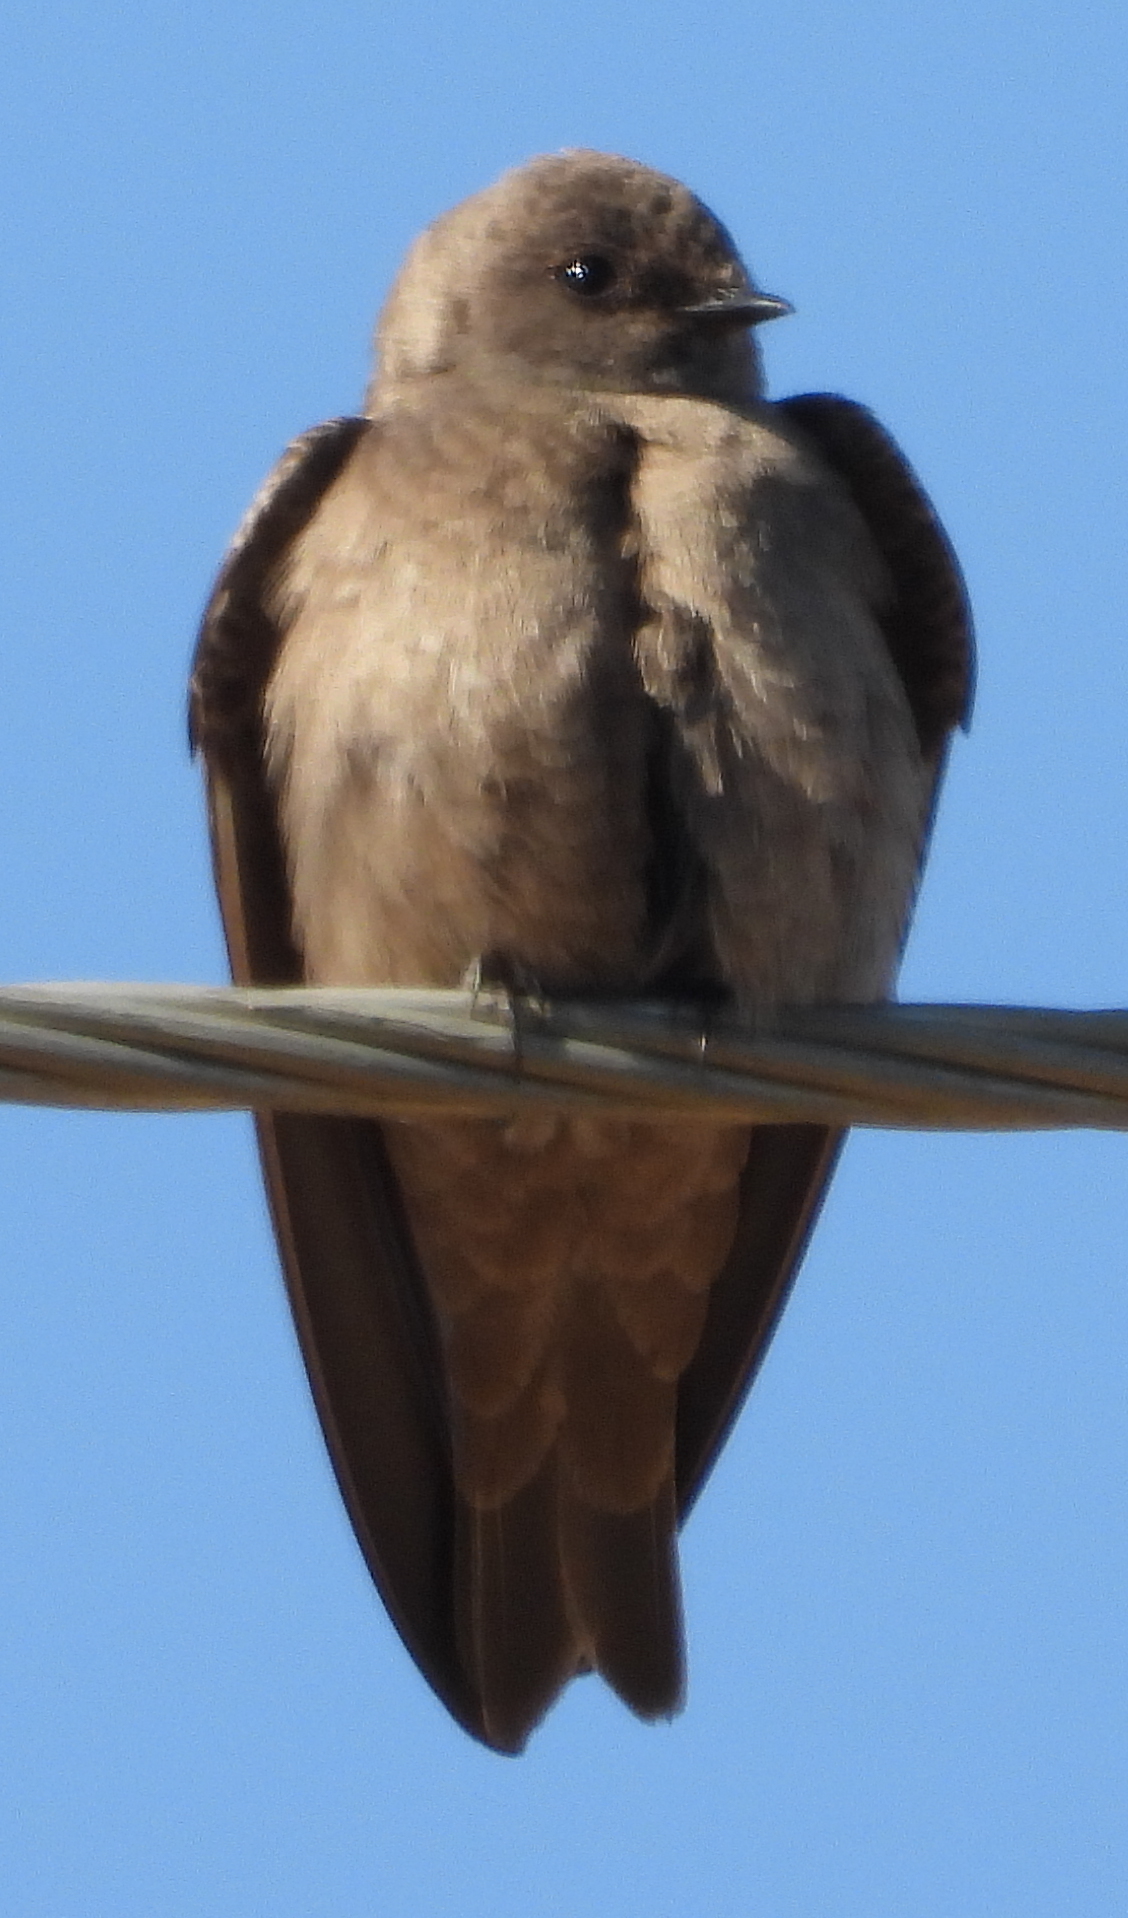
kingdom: Animalia
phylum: Chordata
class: Aves
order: Passeriformes
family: Hirundinidae
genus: Riparia
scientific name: Riparia paludicola
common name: Brown-throated martin
